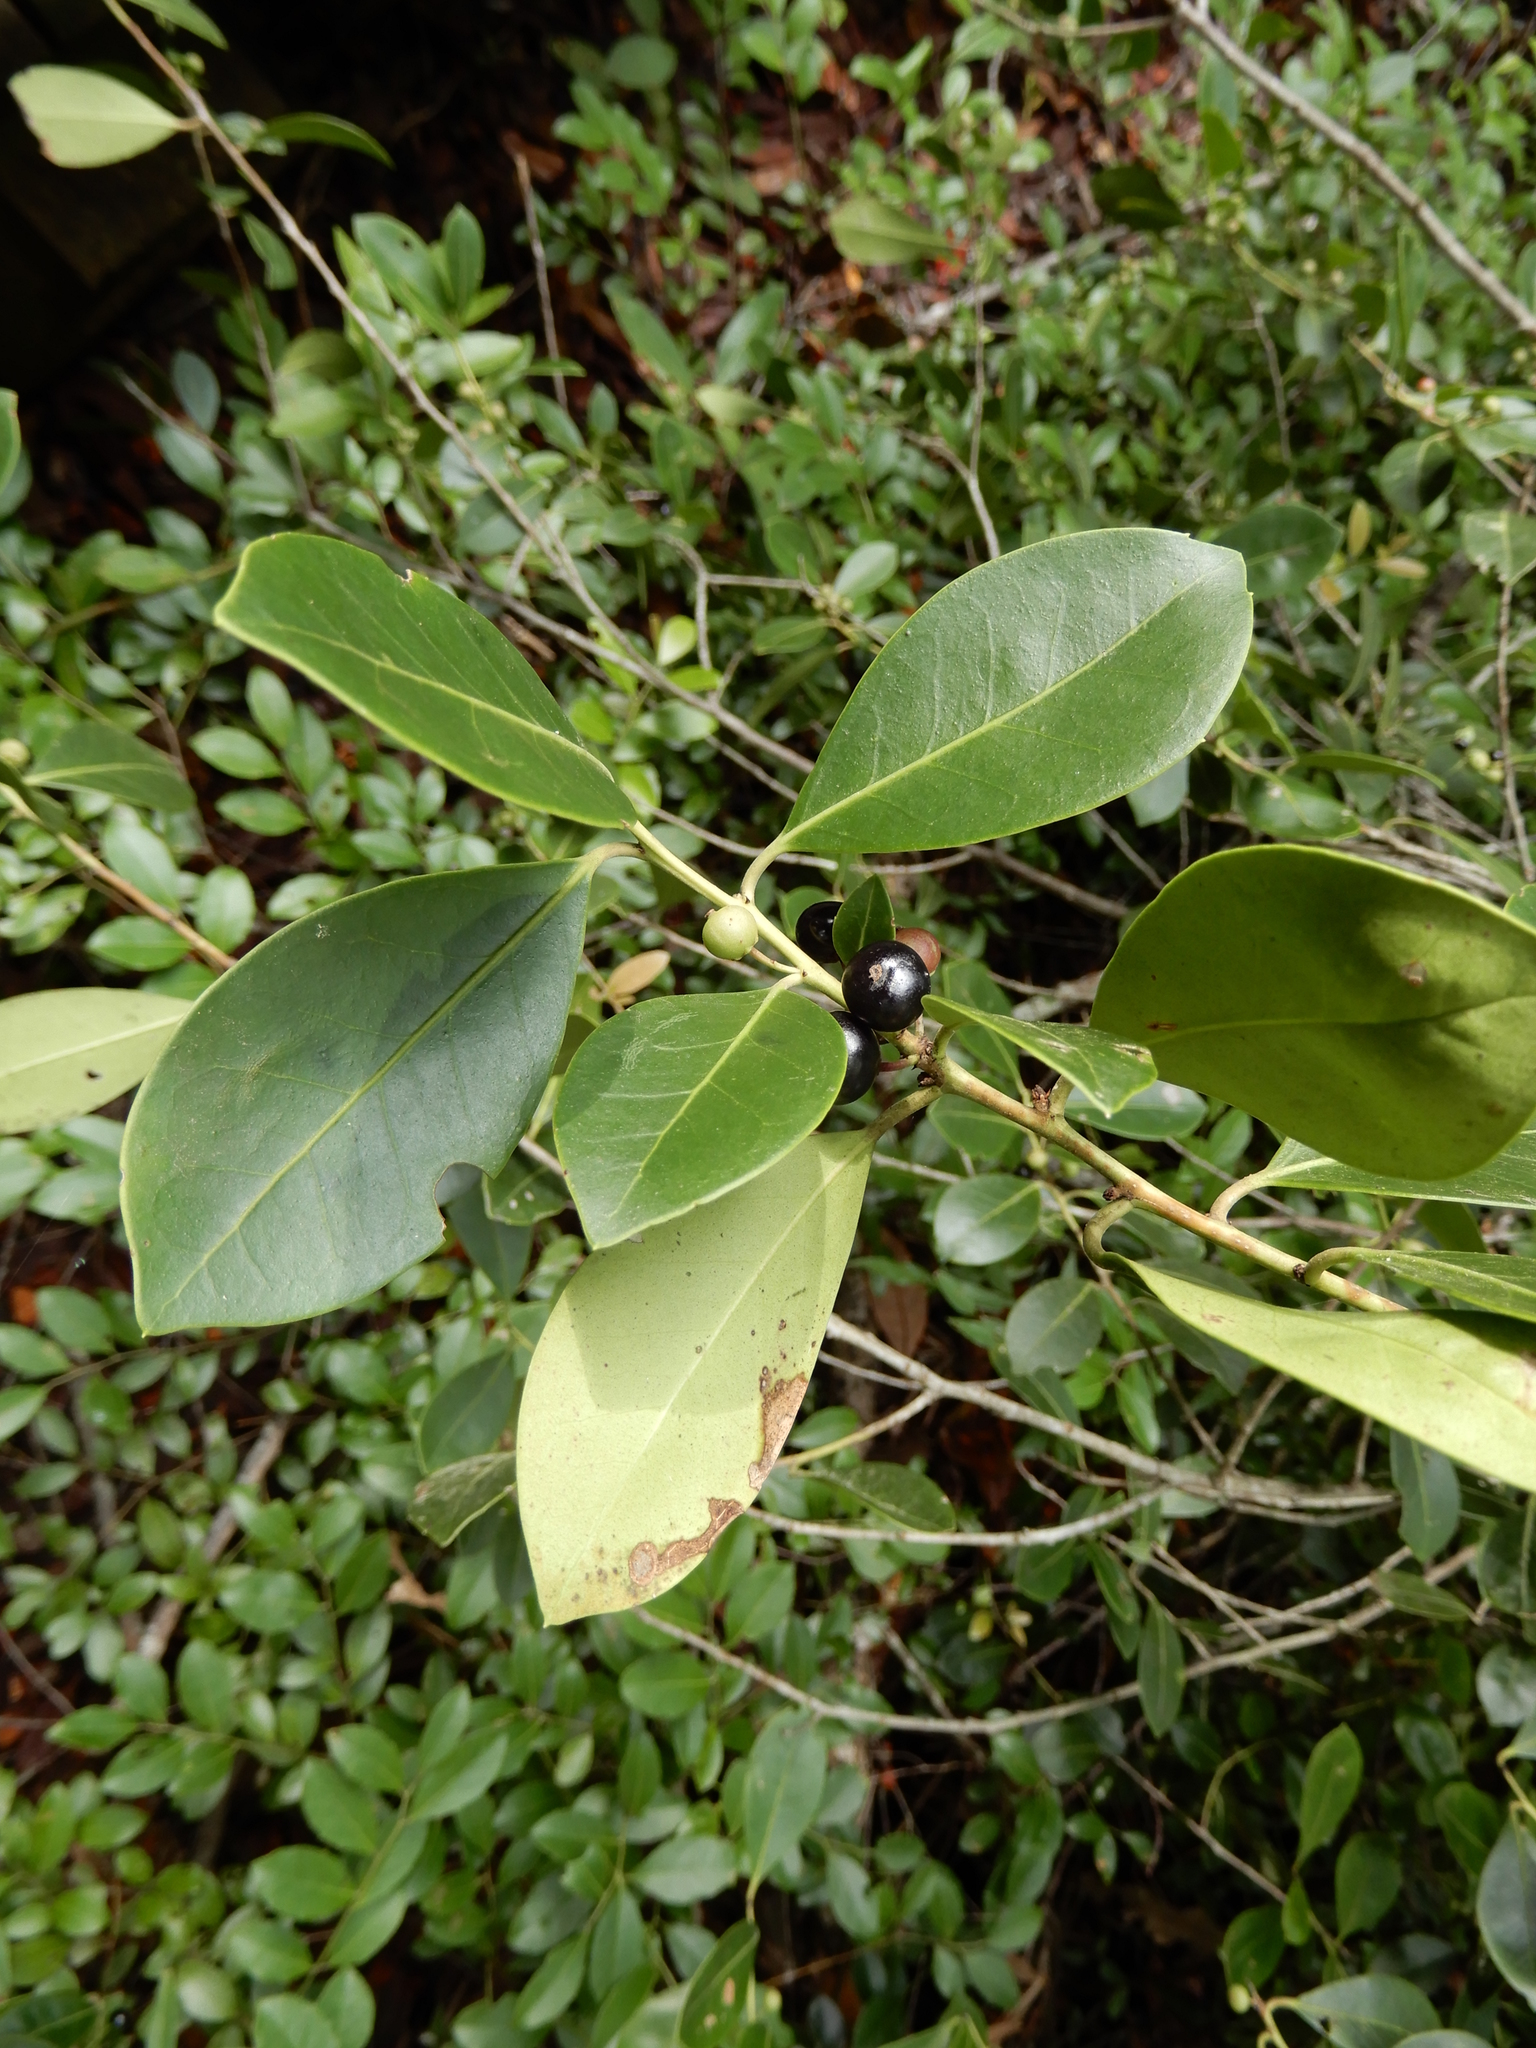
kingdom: Plantae
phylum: Tracheophyta
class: Magnoliopsida
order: Aquifoliales
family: Aquifoliaceae
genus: Ilex
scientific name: Ilex coriacea
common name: Sweet gallberry
